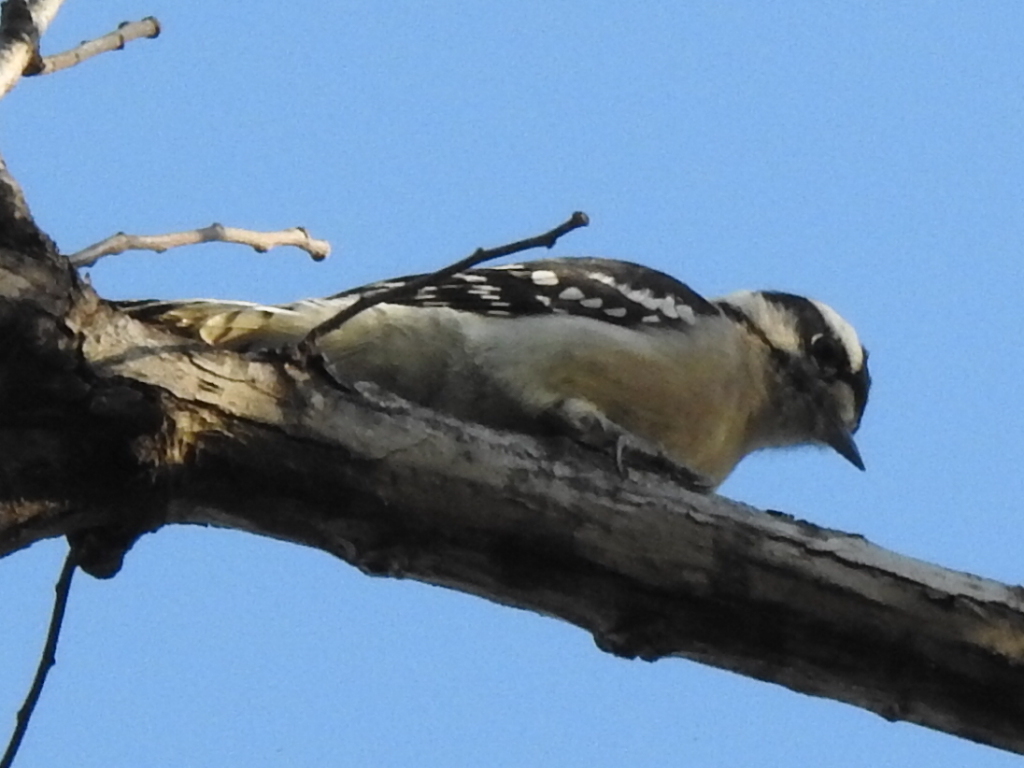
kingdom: Animalia
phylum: Chordata
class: Aves
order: Piciformes
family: Picidae
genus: Dryobates
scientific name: Dryobates pubescens
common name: Downy woodpecker
